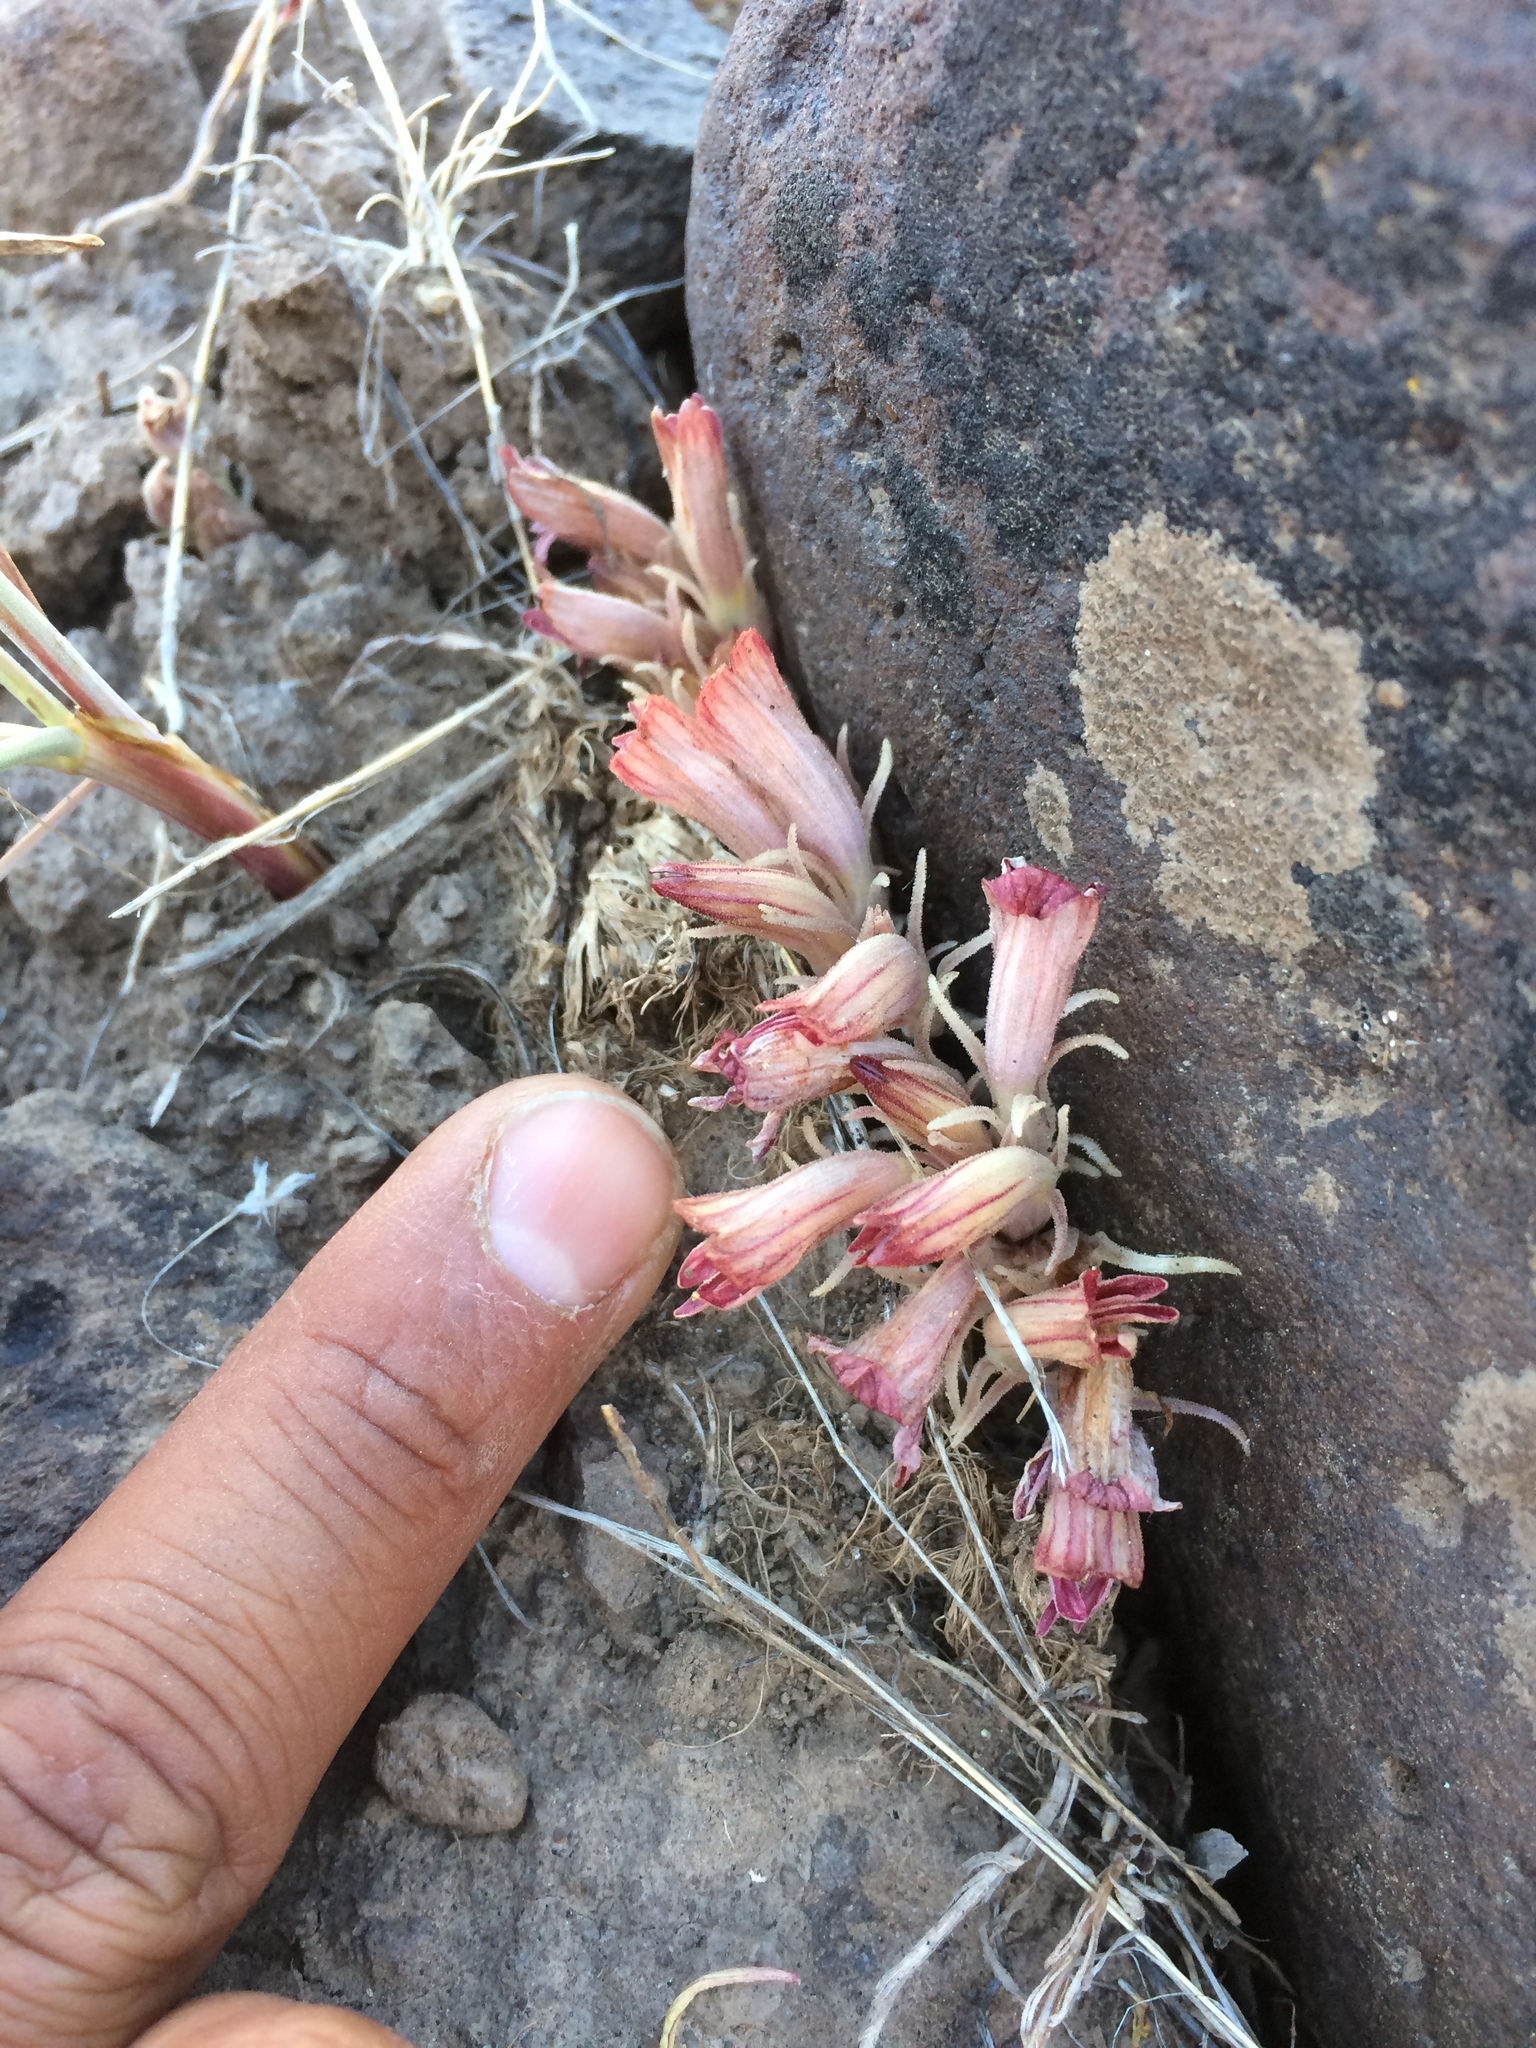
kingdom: Plantae
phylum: Tracheophyta
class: Magnoliopsida
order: Lamiales
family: Orobanchaceae
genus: Aphyllon
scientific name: Aphyllon corymbosum
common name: Flat-top broomrape
